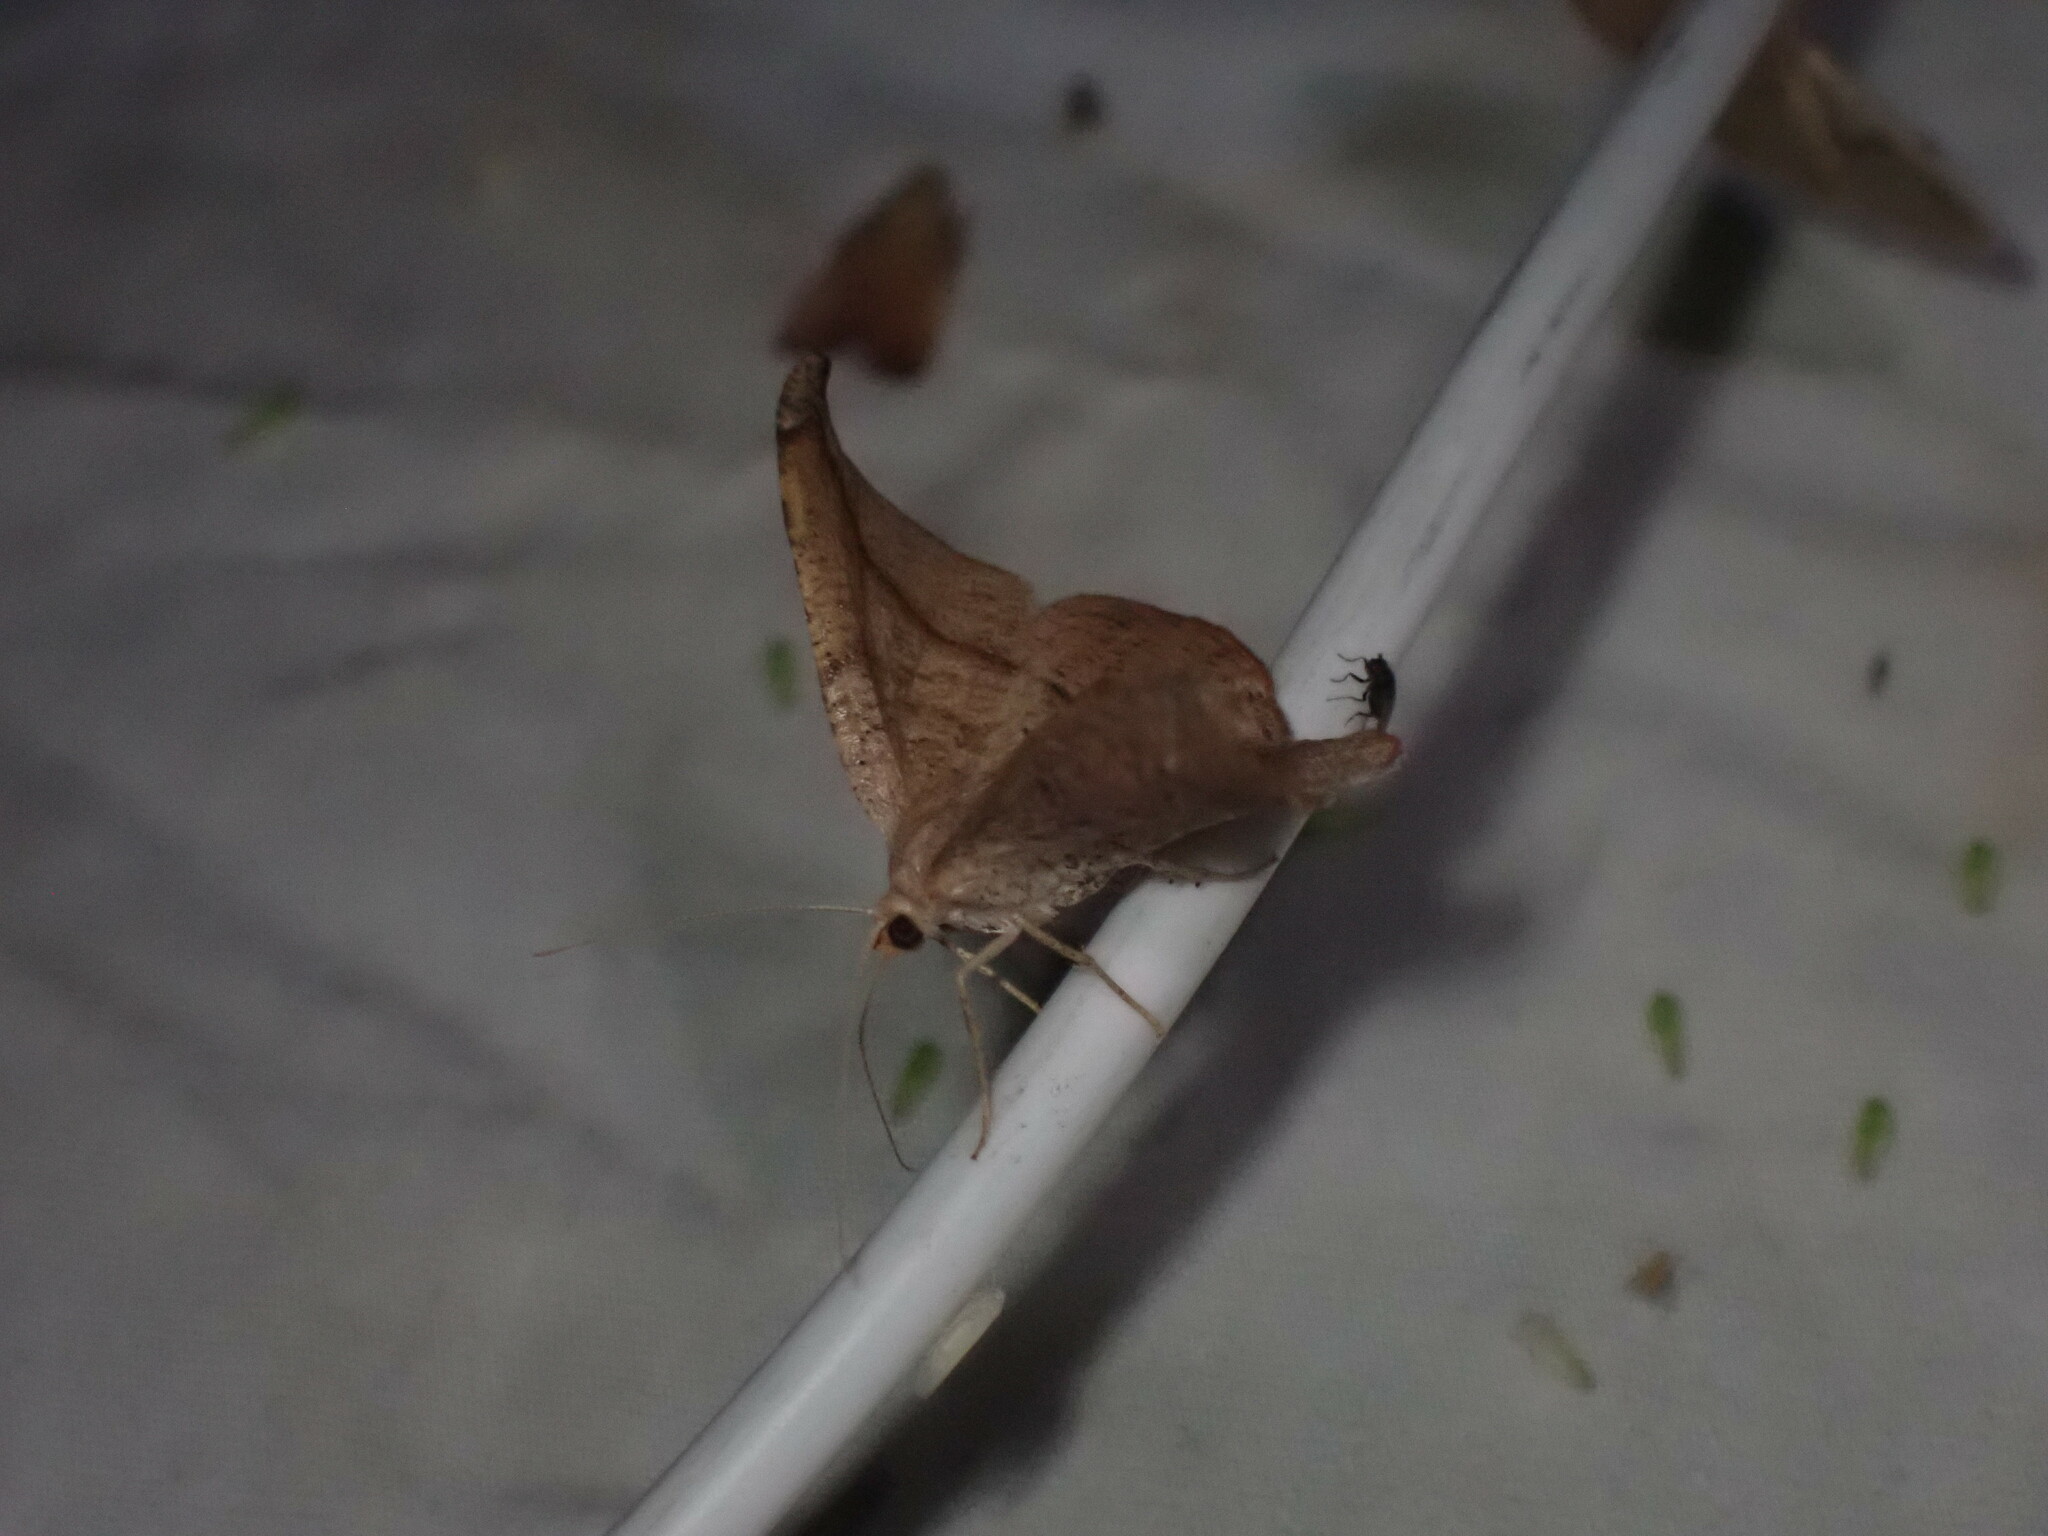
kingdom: Animalia
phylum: Arthropoda
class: Insecta
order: Lepidoptera
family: Geometridae
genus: Patalene
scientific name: Patalene olyzonaria
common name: Juniper geometer moth
